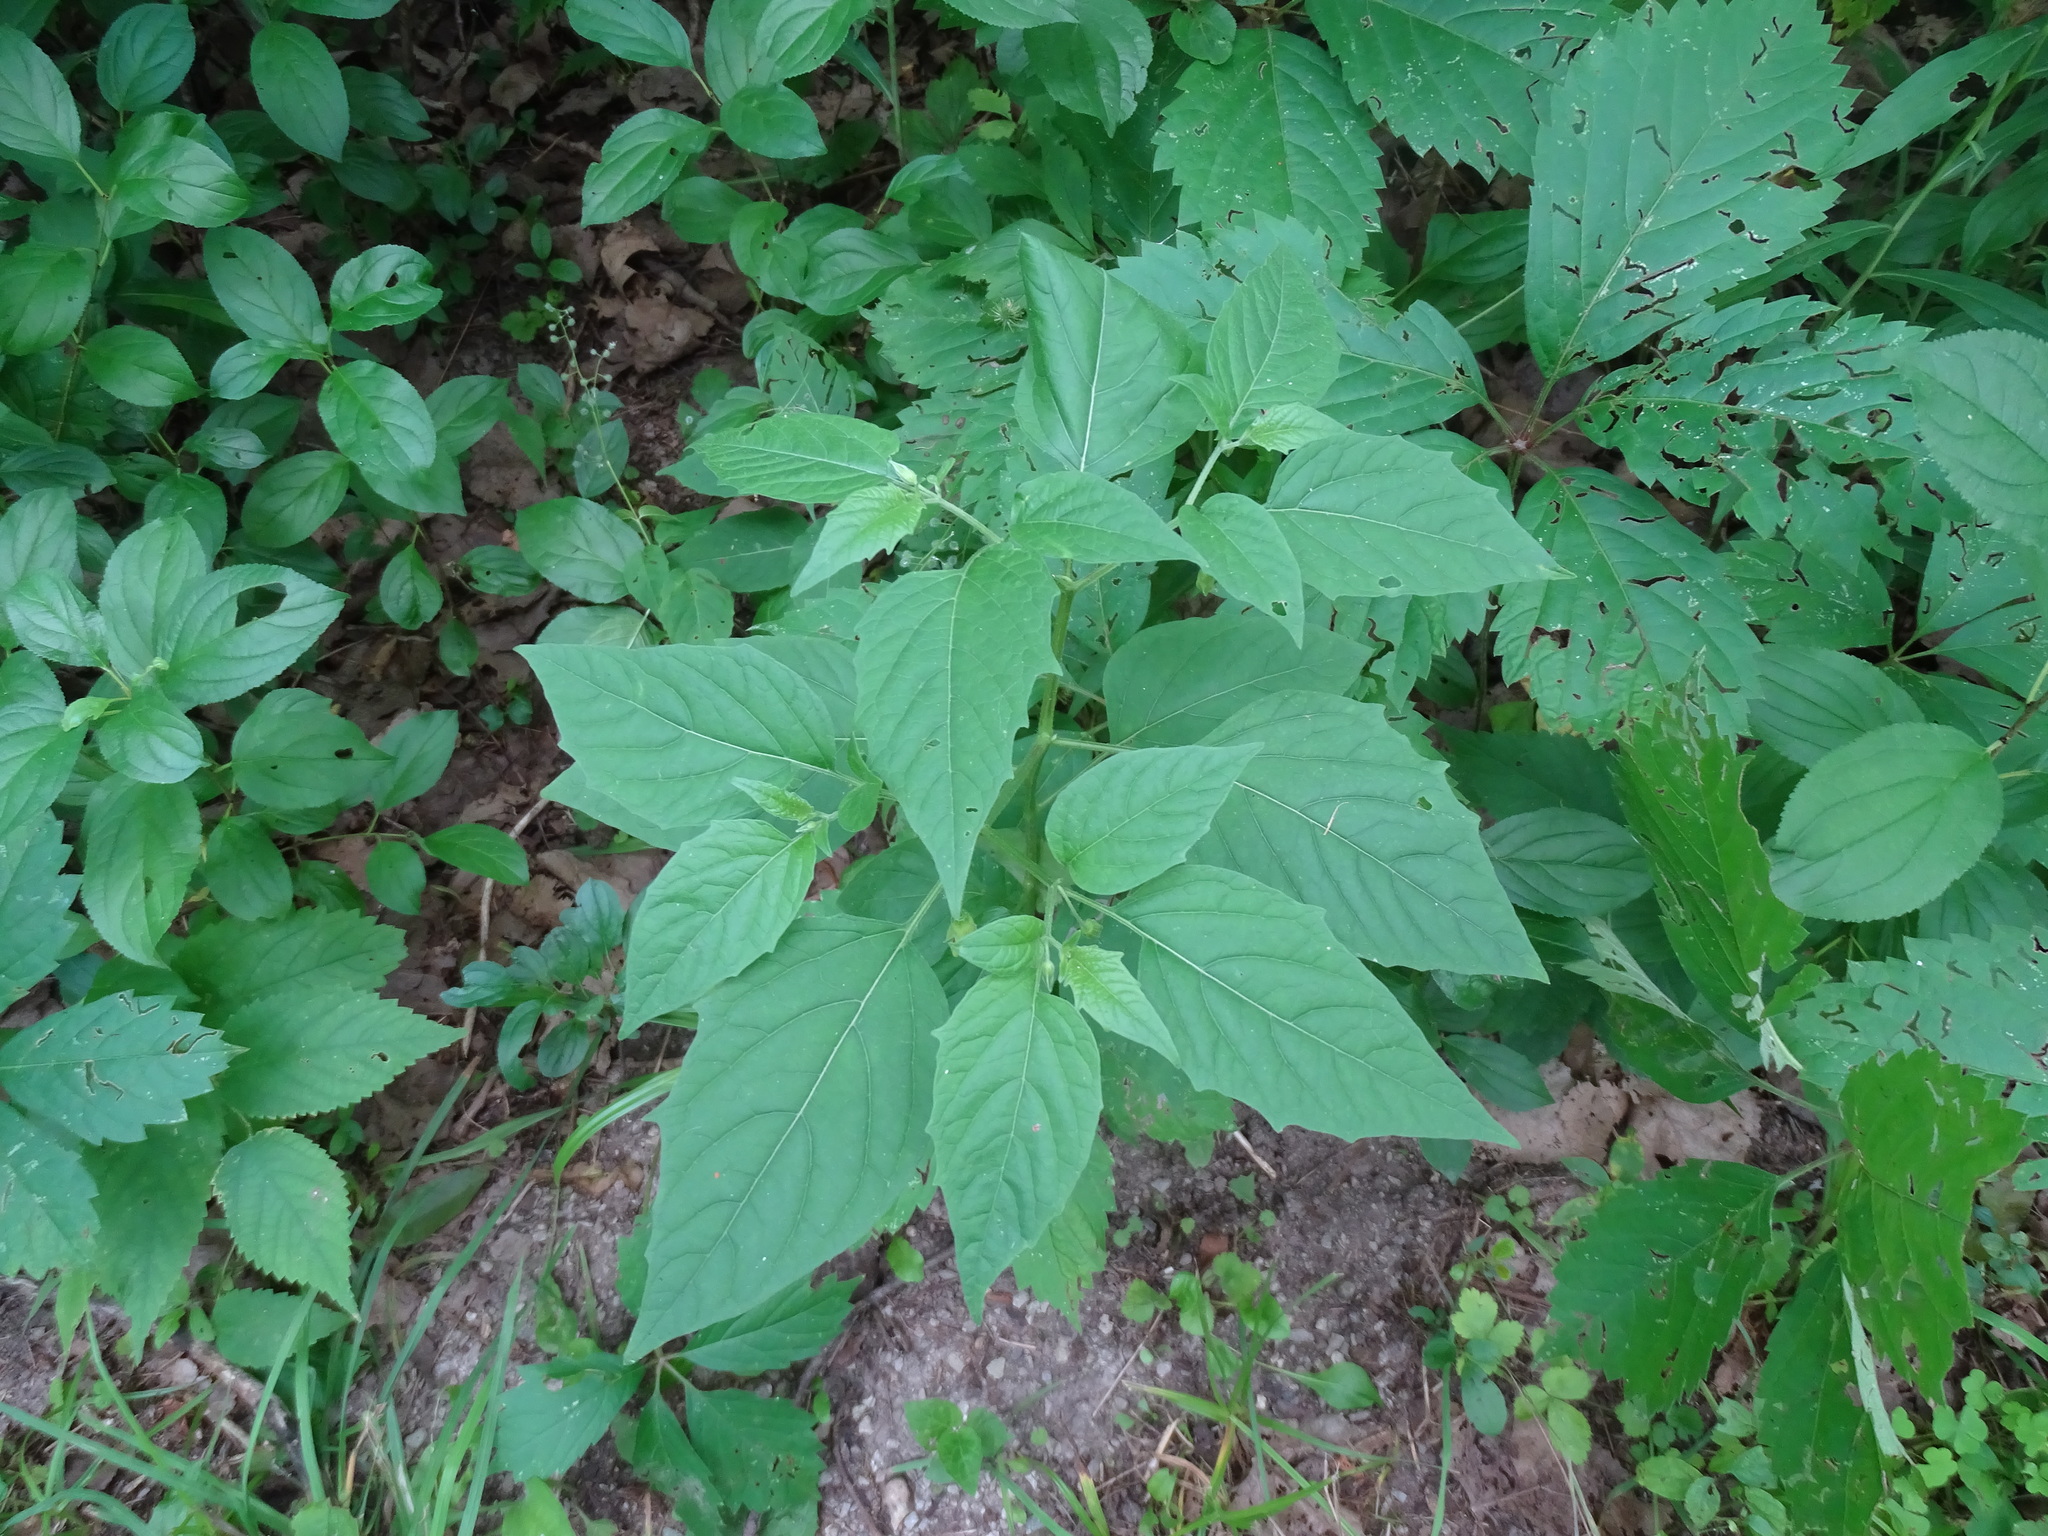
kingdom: Plantae
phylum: Tracheophyta
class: Magnoliopsida
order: Solanales
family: Solanaceae
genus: Physalis
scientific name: Physalis longifolia
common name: Common ground-cherry
